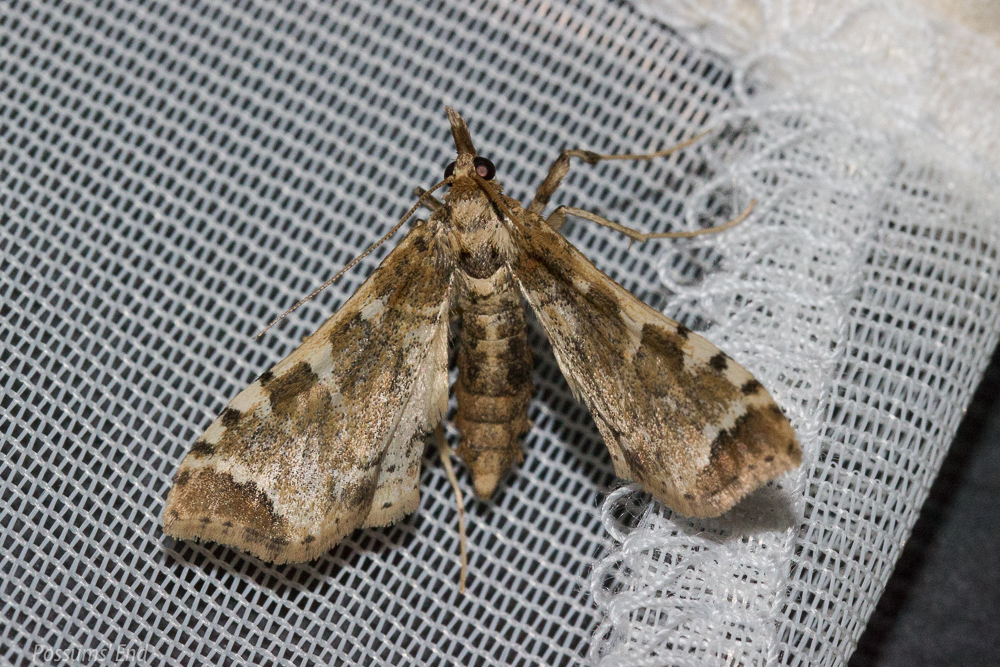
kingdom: Animalia
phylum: Arthropoda
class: Insecta
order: Lepidoptera
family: Crambidae
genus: Sceliodes
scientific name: Sceliodes cordalis
